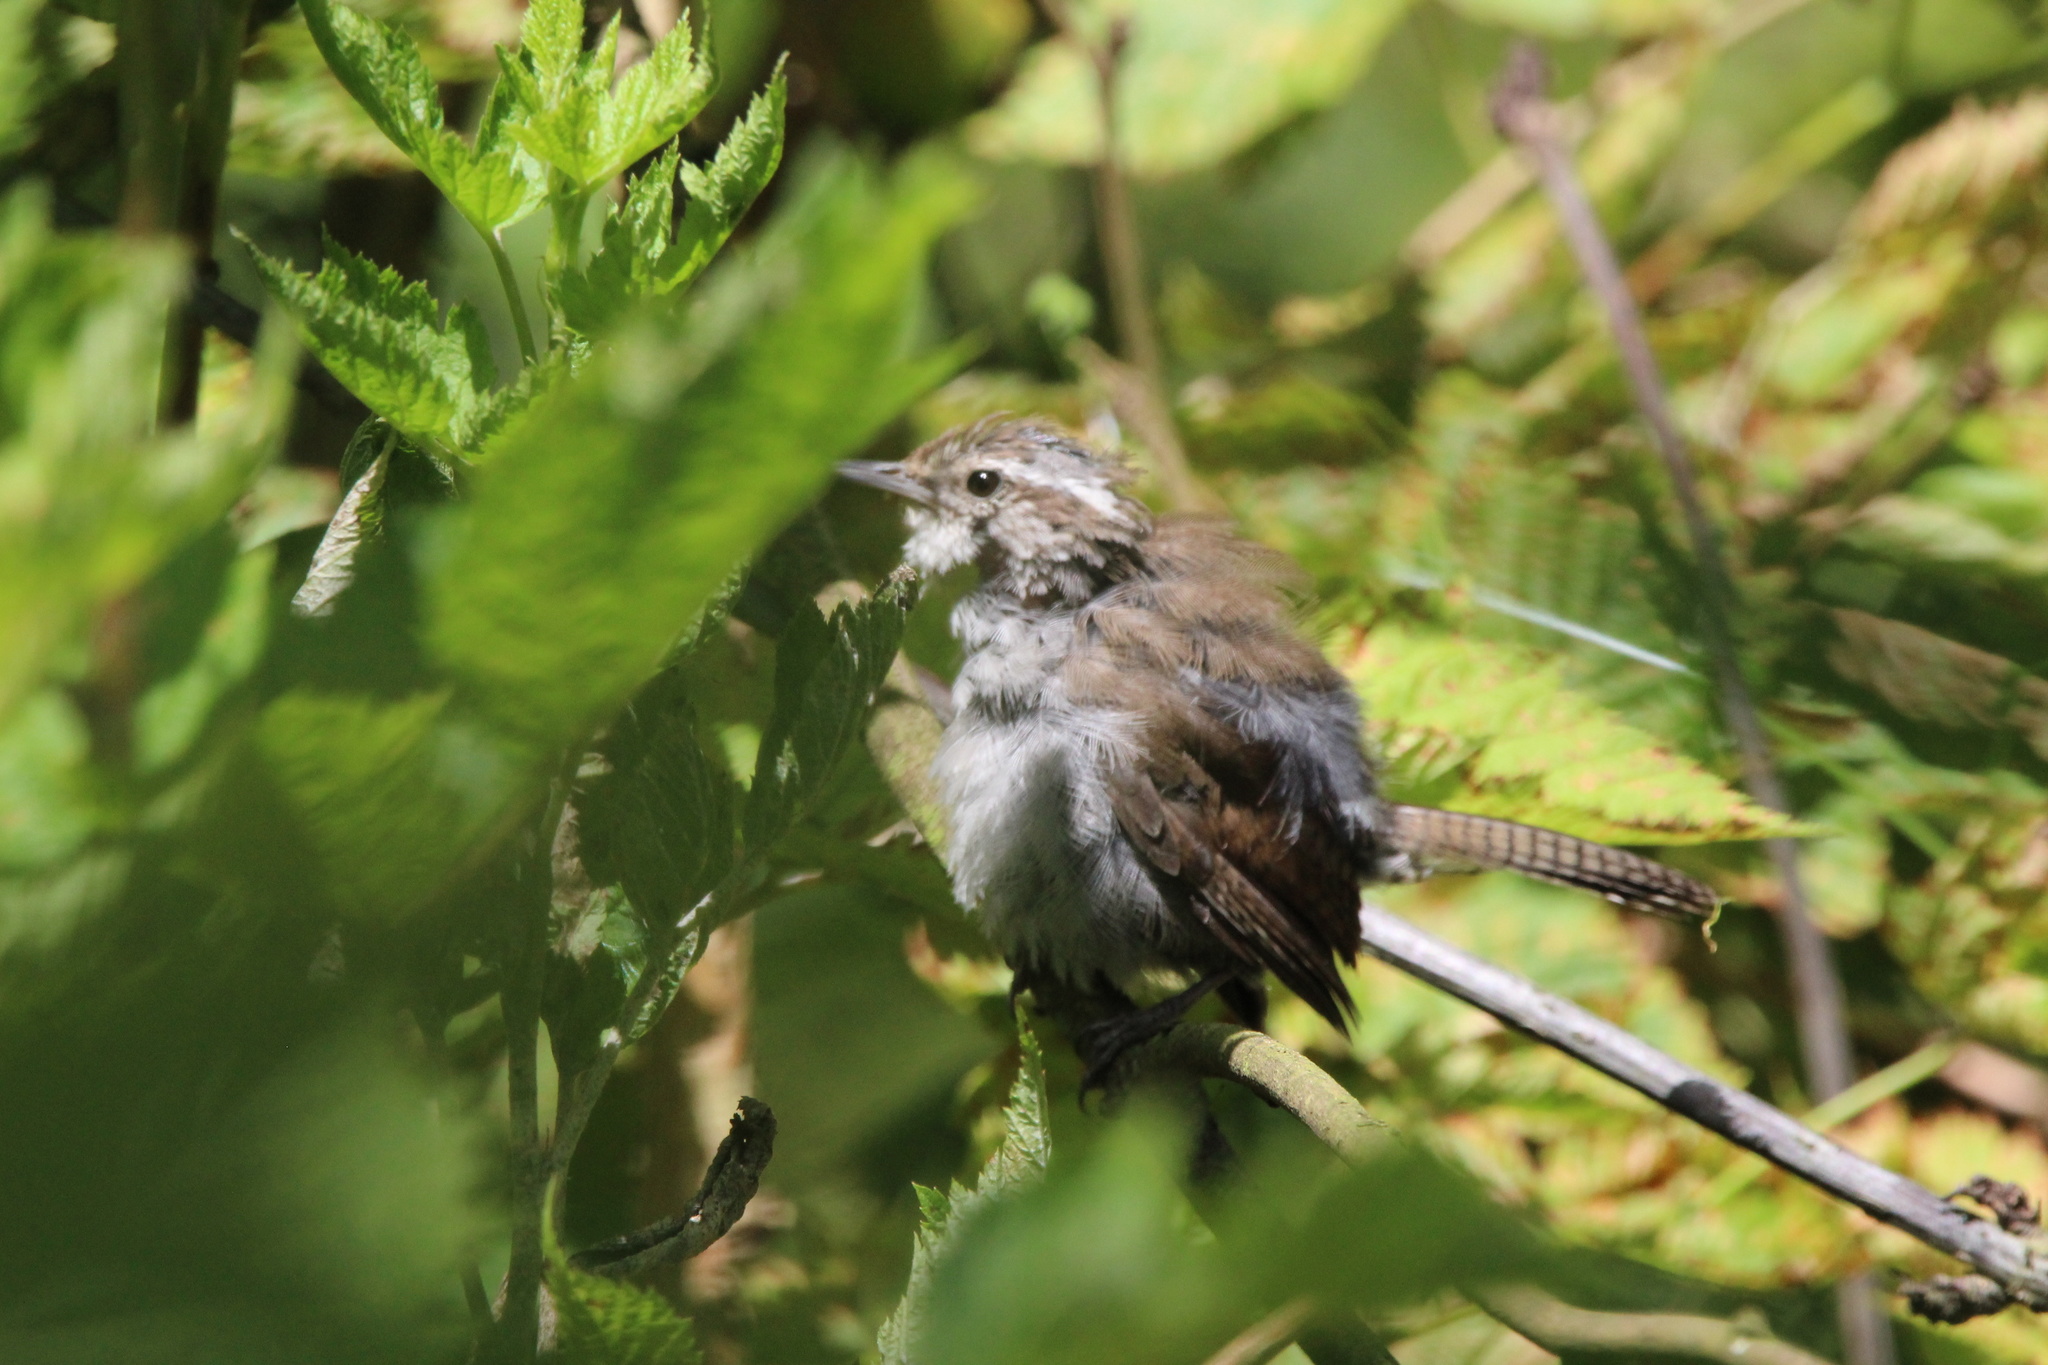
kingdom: Animalia
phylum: Chordata
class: Aves
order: Passeriformes
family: Troglodytidae
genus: Thryomanes
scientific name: Thryomanes bewickii
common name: Bewick's wren
